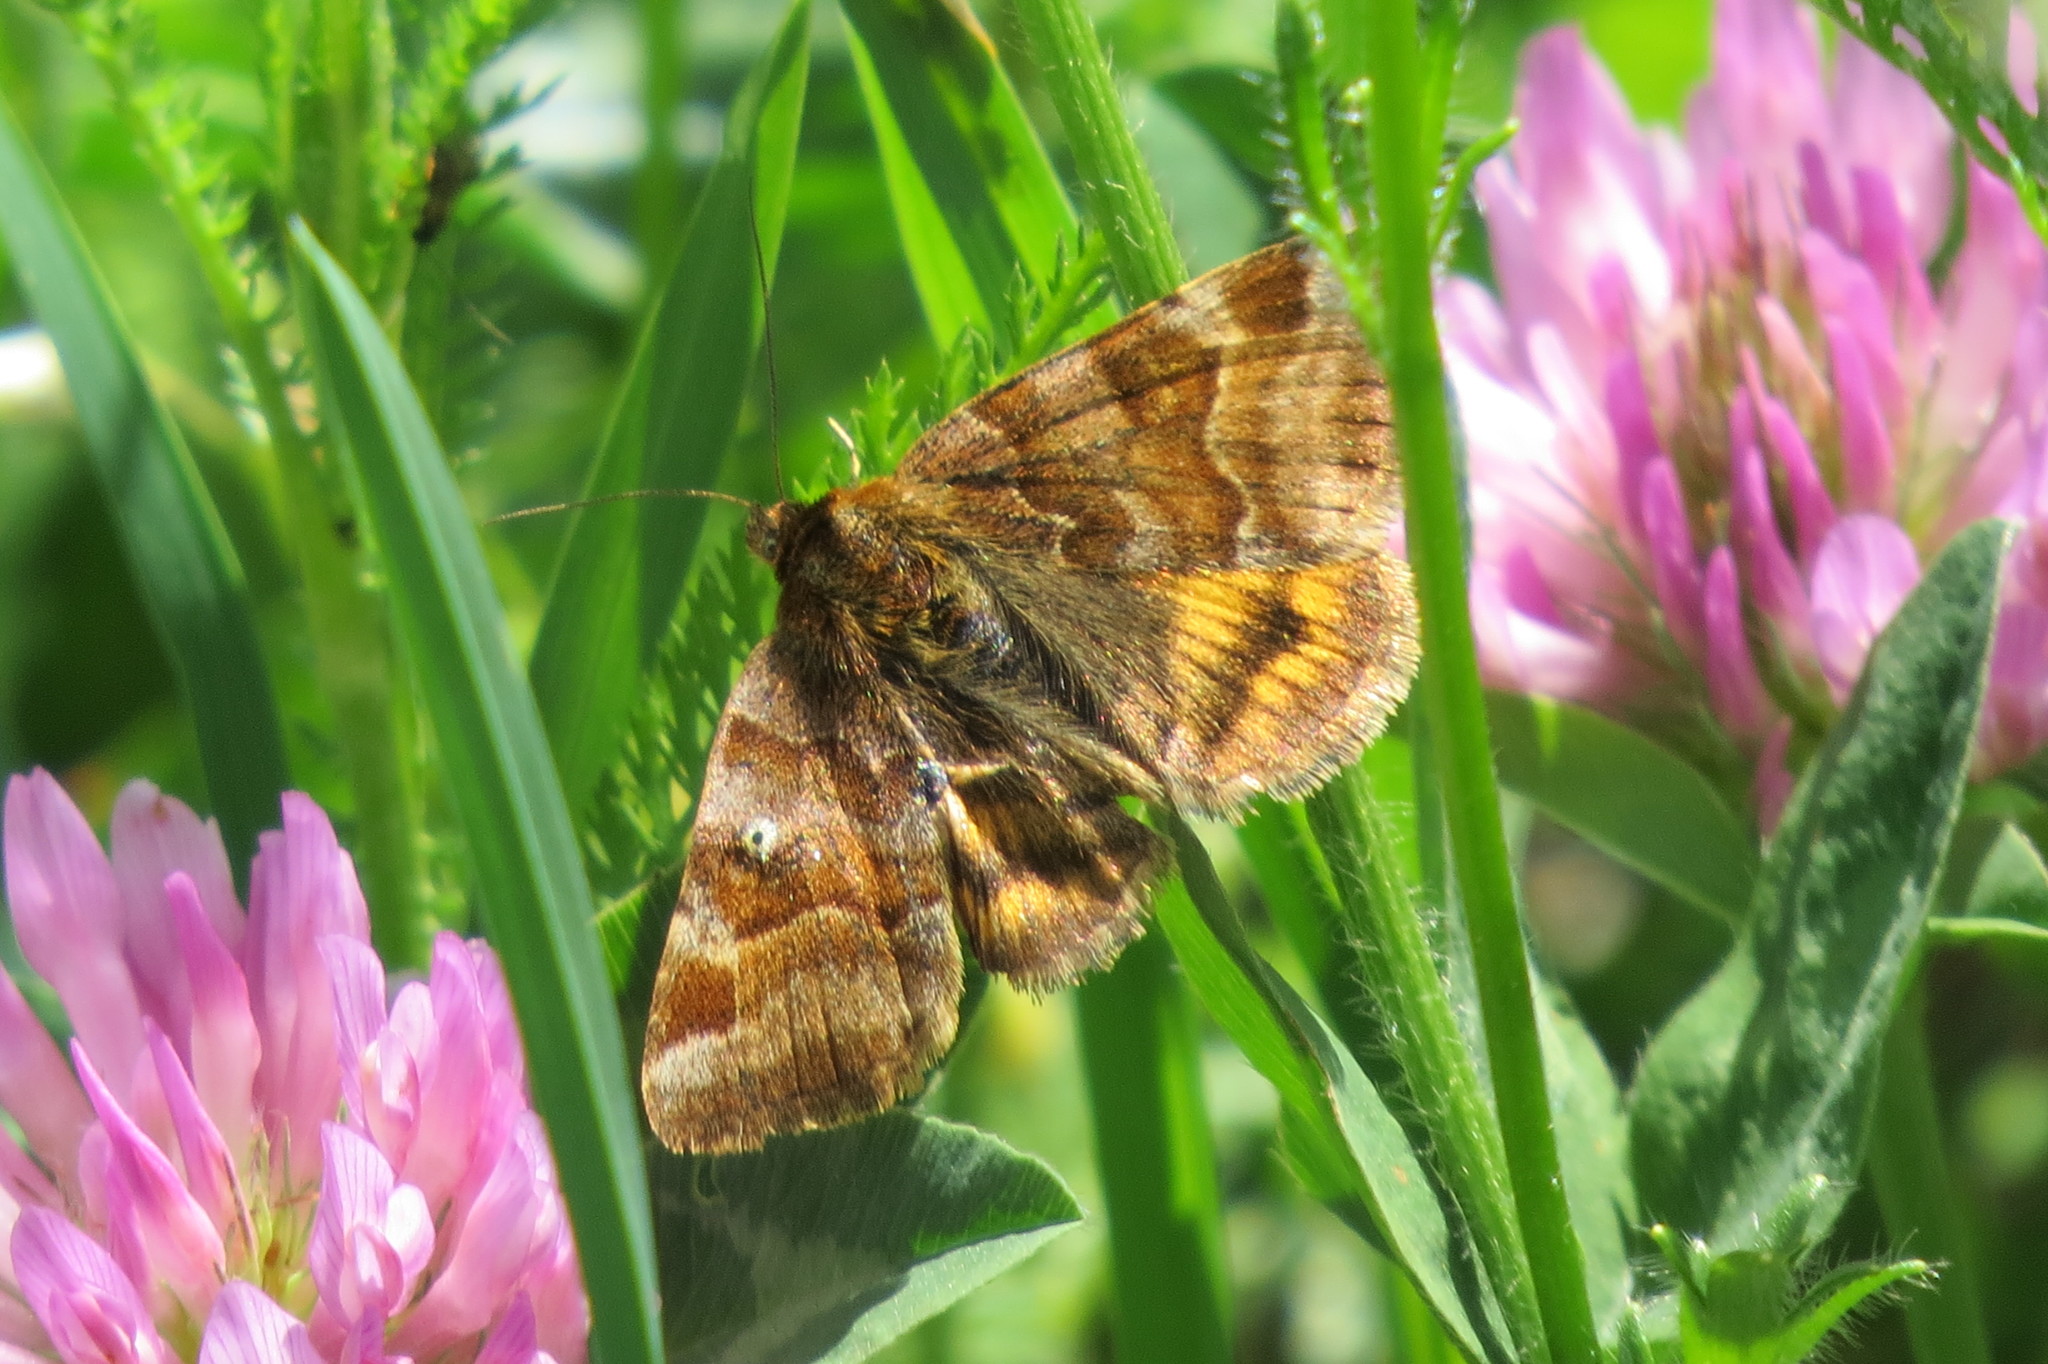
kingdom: Animalia
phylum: Arthropoda
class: Insecta
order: Lepidoptera
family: Erebidae
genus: Euclidia
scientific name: Euclidia glyphica
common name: Burnet companion
